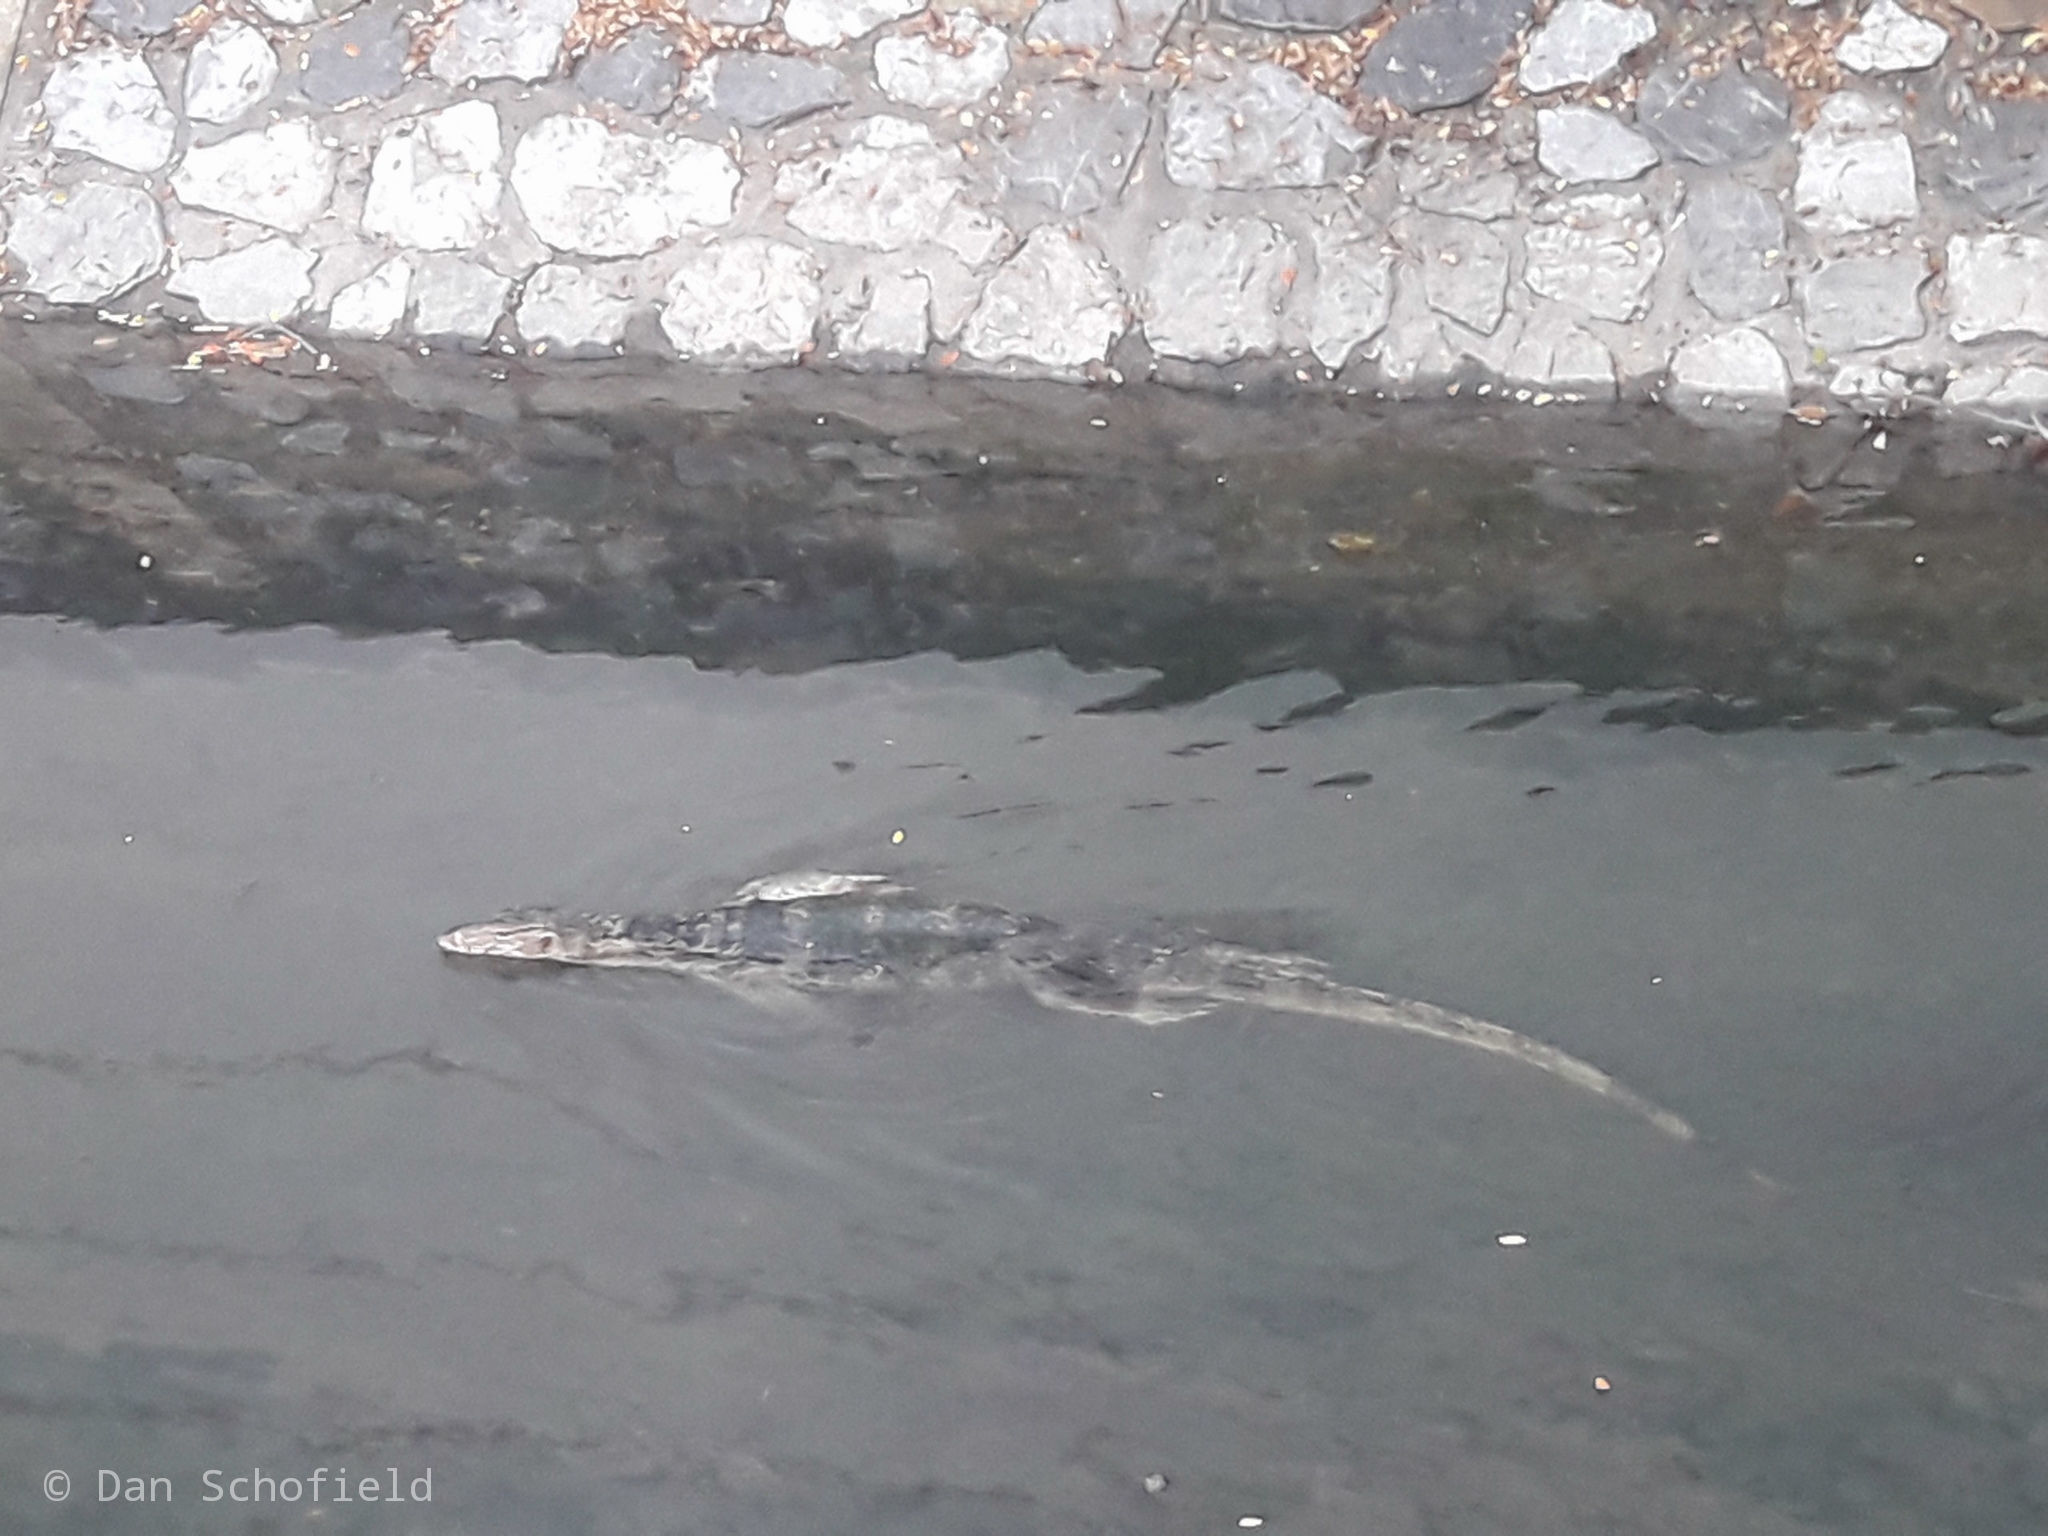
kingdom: Animalia
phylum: Chordata
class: Squamata
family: Varanidae
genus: Varanus
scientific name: Varanus salvator
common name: Common water monitor
